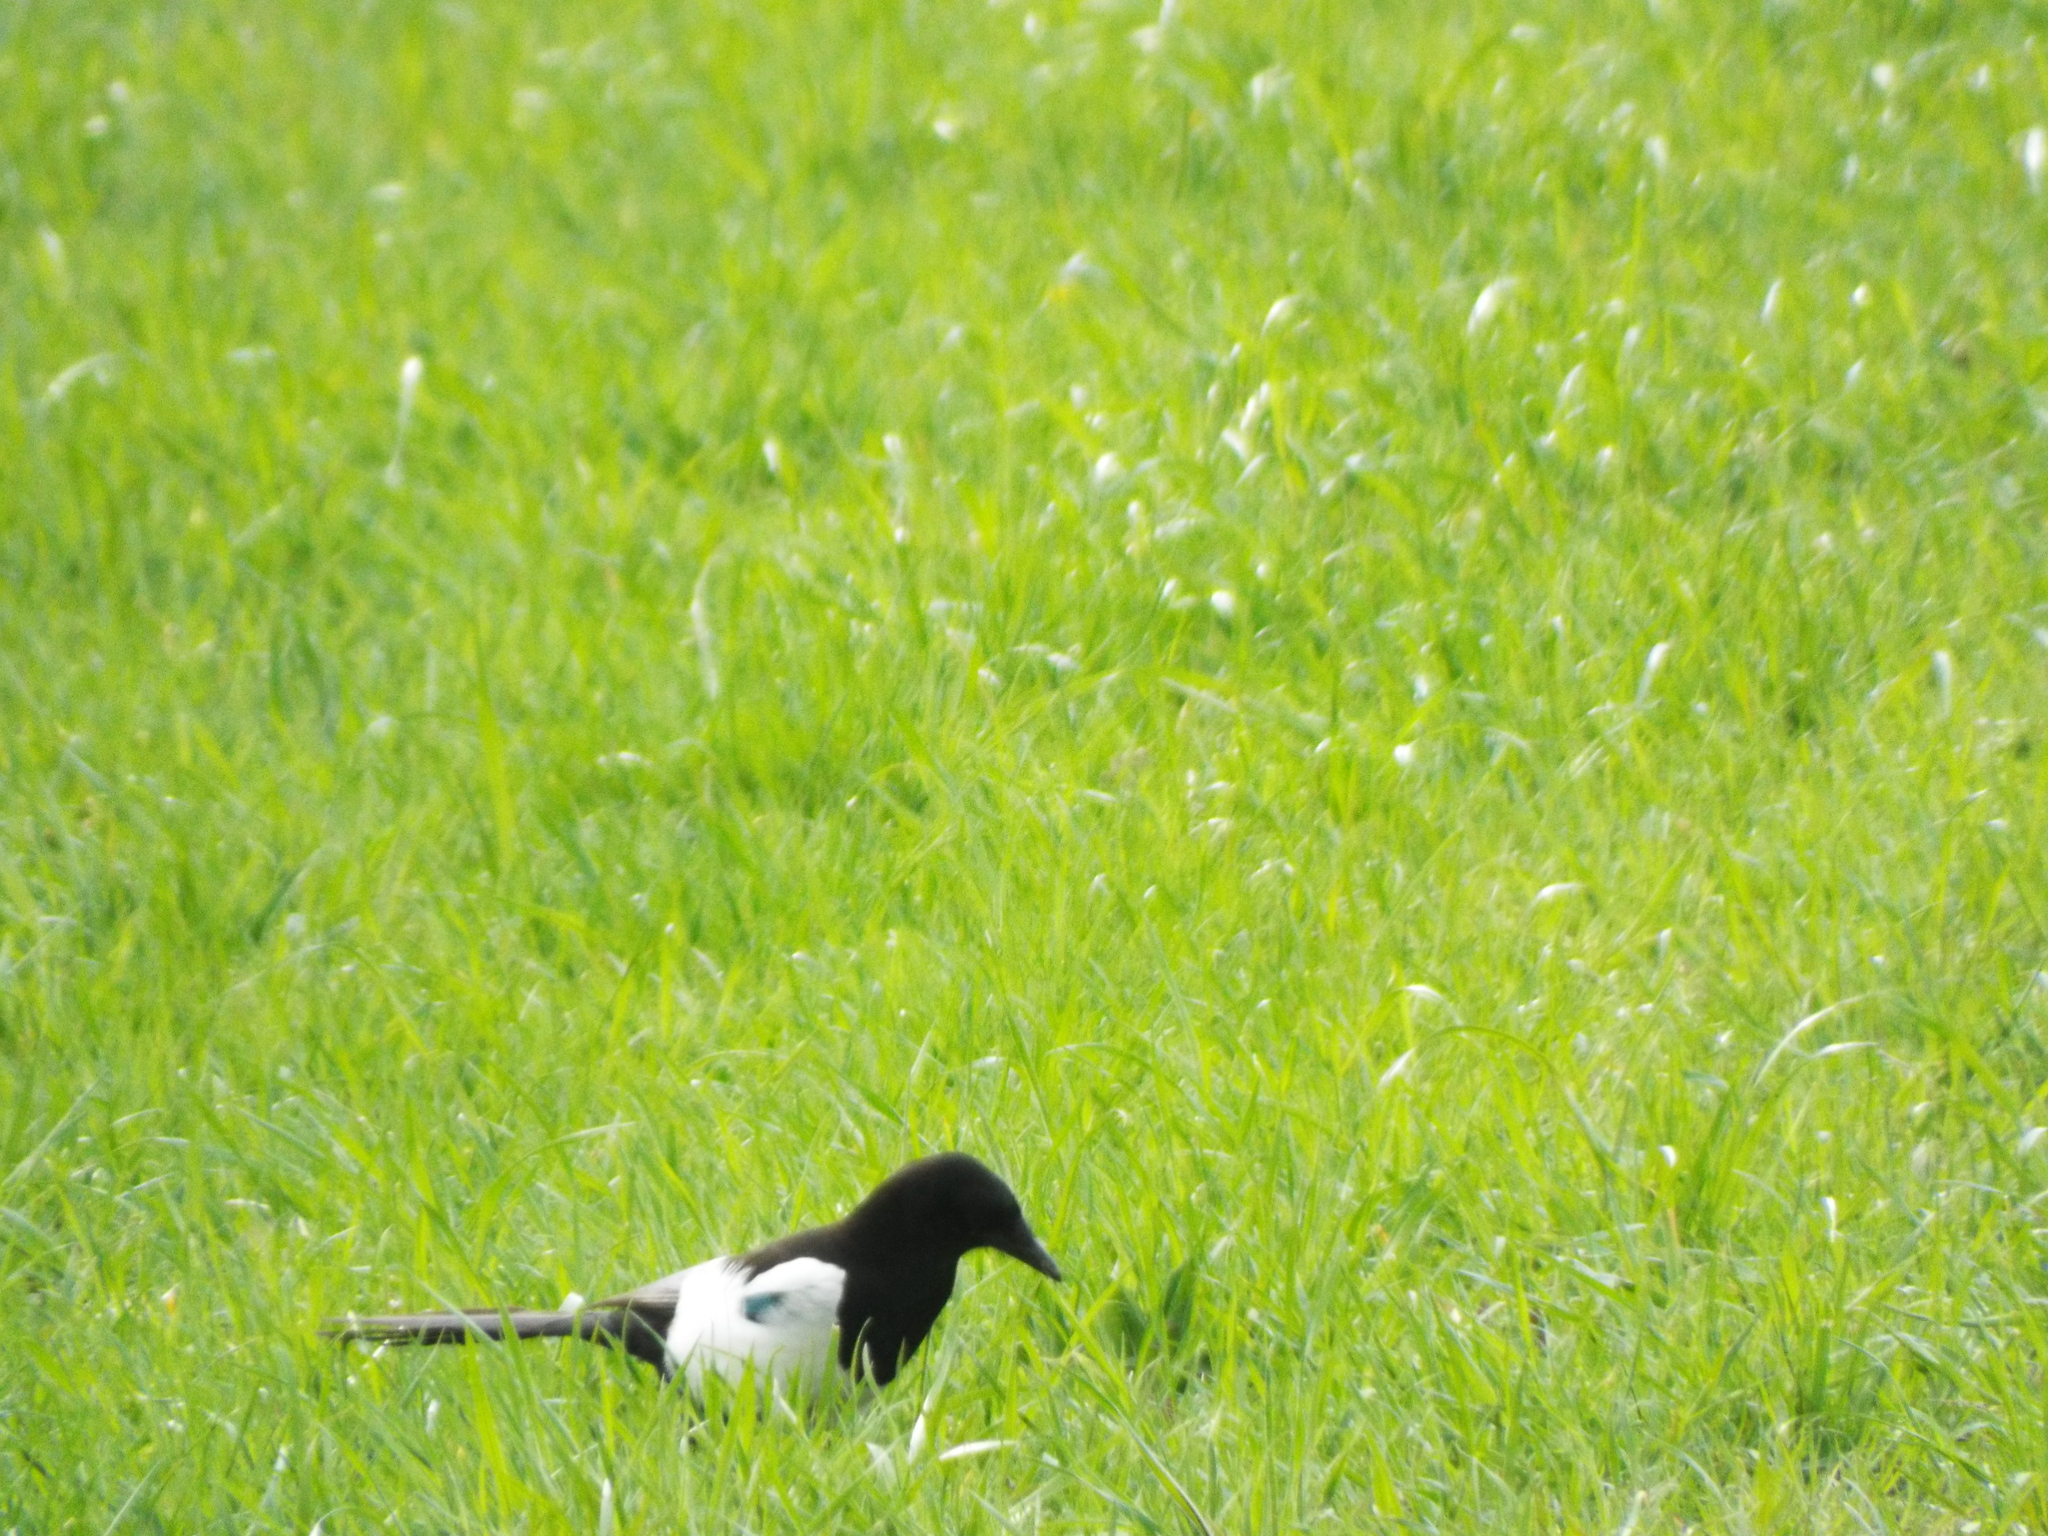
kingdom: Animalia
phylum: Chordata
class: Aves
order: Passeriformes
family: Corvidae
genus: Pica
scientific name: Pica pica
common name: Eurasian magpie
